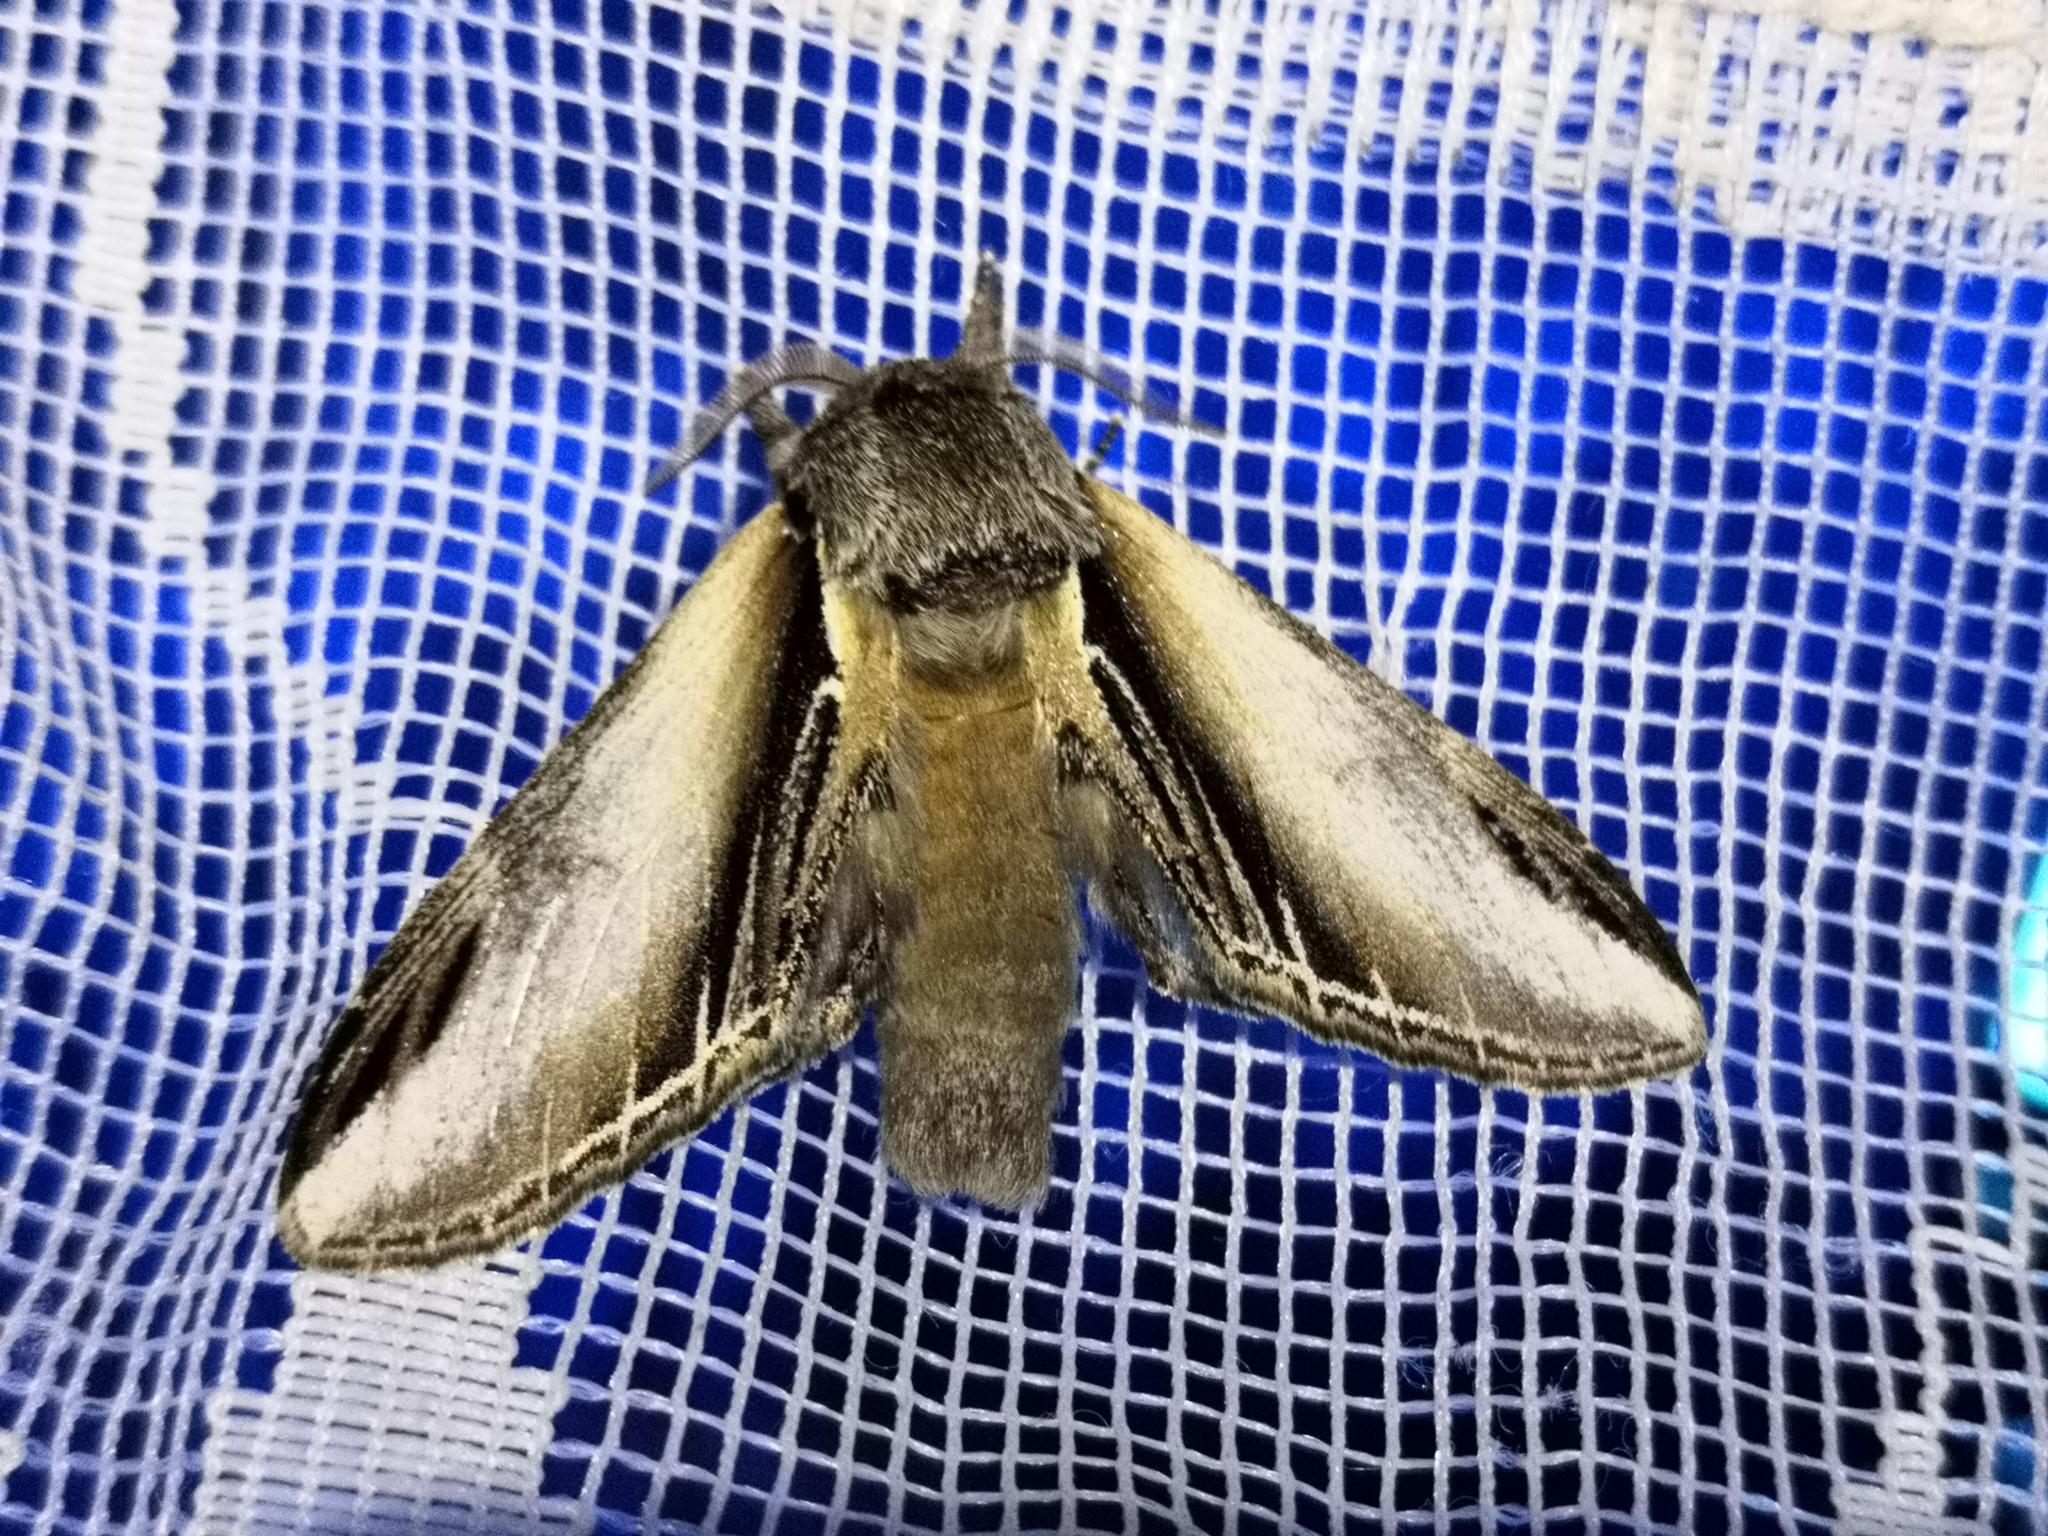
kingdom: Animalia
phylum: Arthropoda
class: Insecta
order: Lepidoptera
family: Notodontidae
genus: Pheosia
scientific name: Pheosia tremula
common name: Swallow prominent
